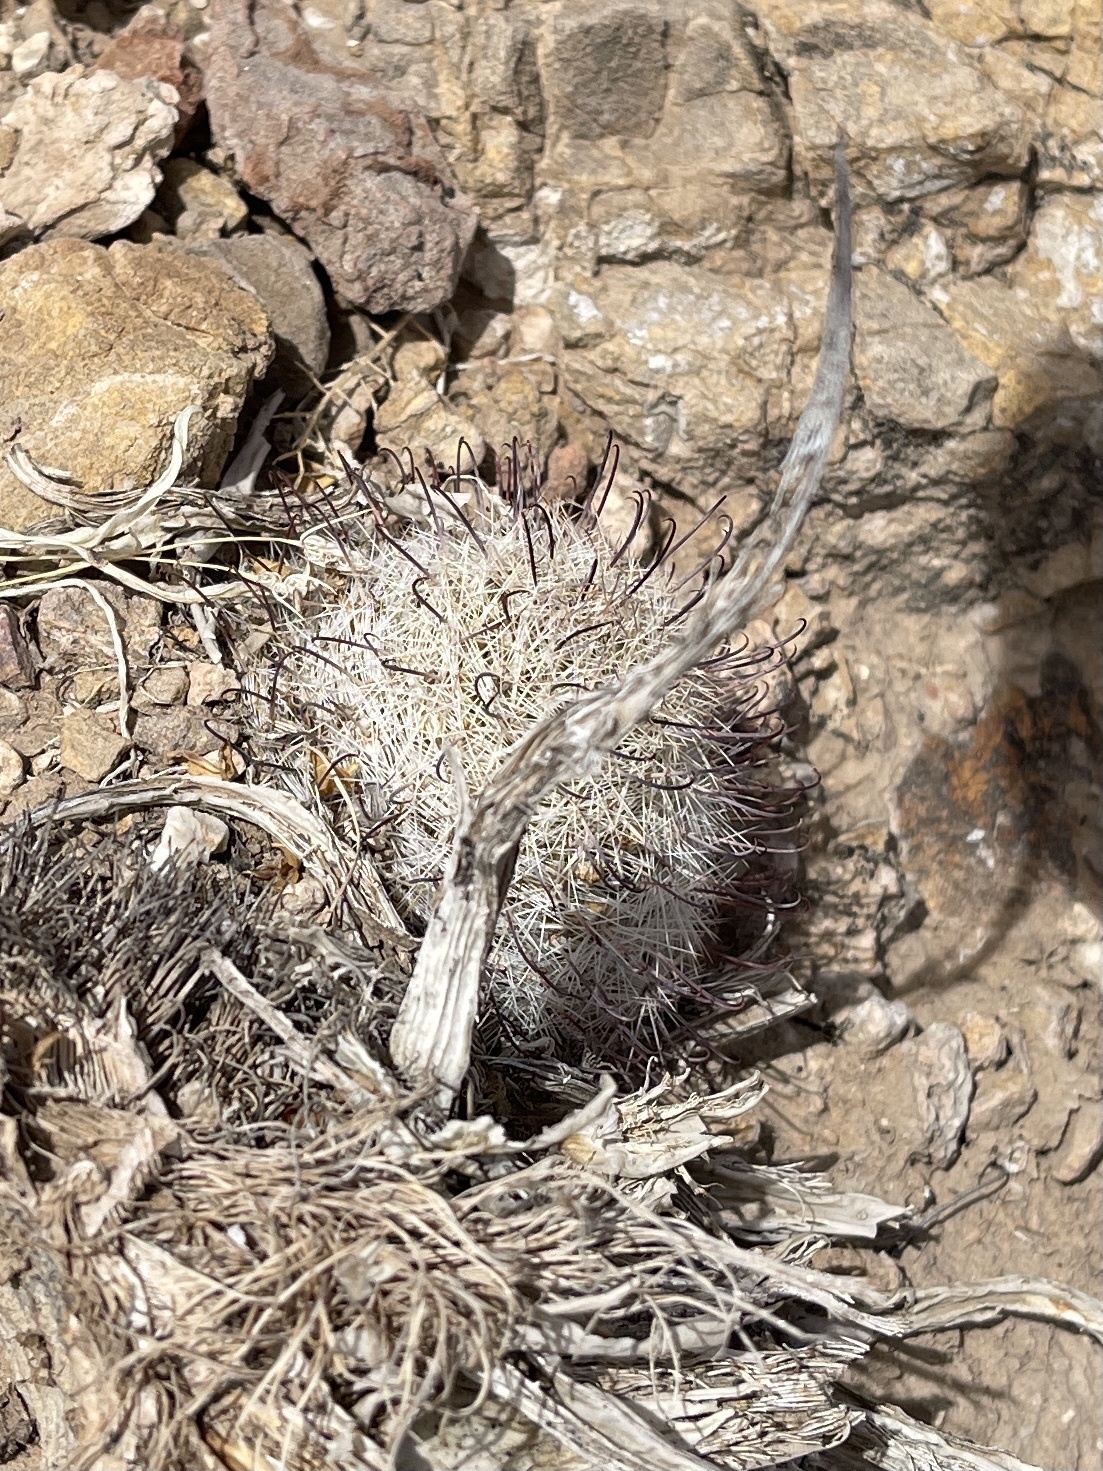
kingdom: Plantae
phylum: Tracheophyta
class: Magnoliopsida
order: Caryophyllales
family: Cactaceae
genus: Cochemiea
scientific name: Cochemiea grahamii
